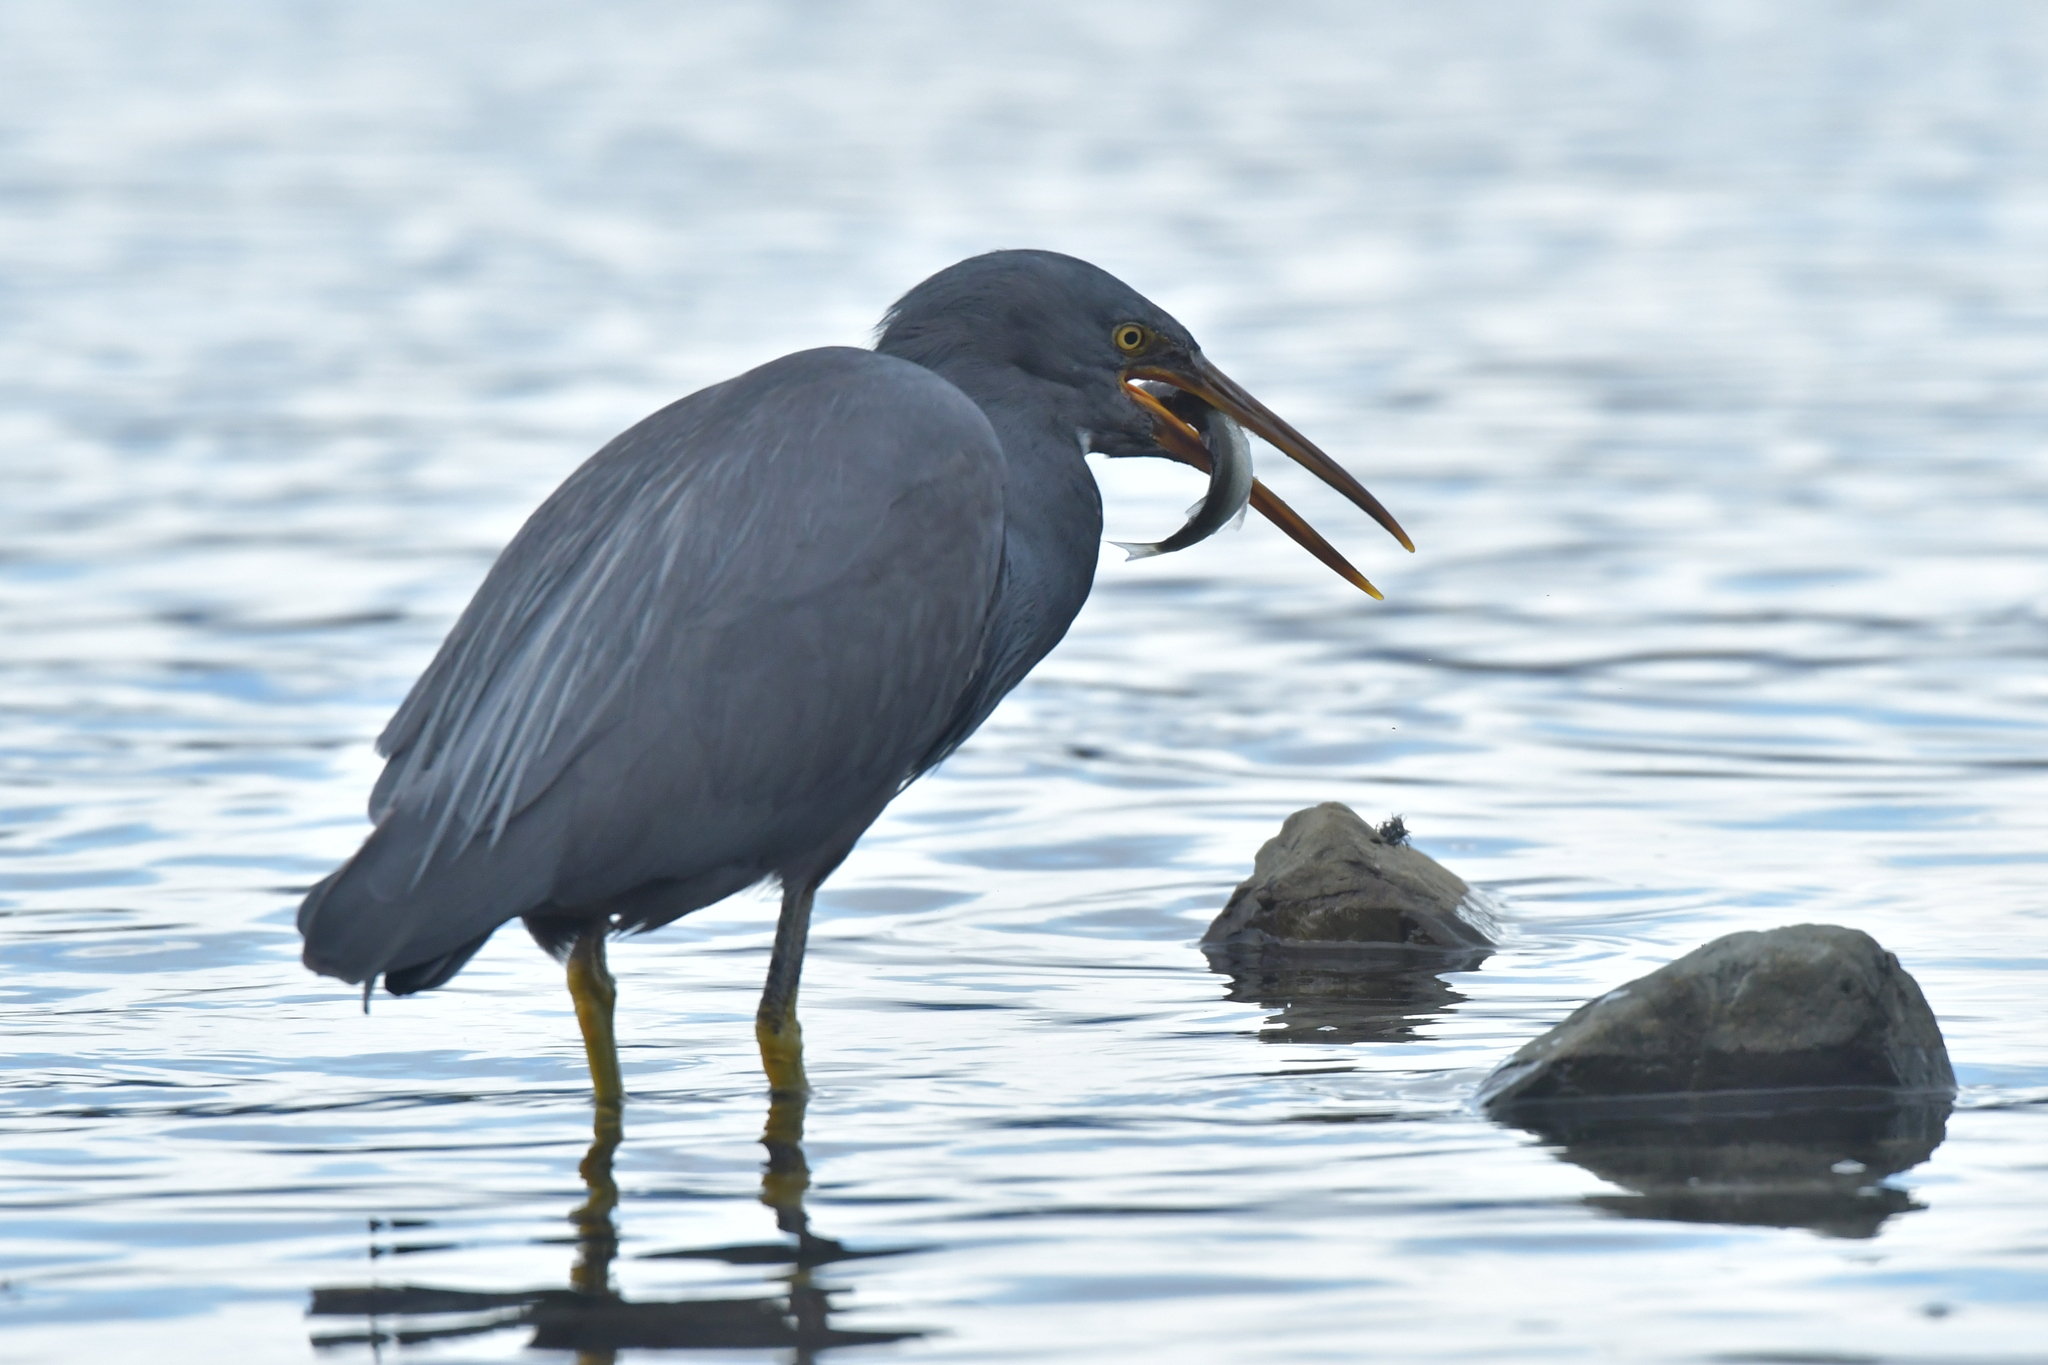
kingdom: Animalia
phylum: Chordata
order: Mugiliformes
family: Mugilidae
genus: Aldrichetta
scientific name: Aldrichetta forsteri
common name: Yellow-eye mullet
